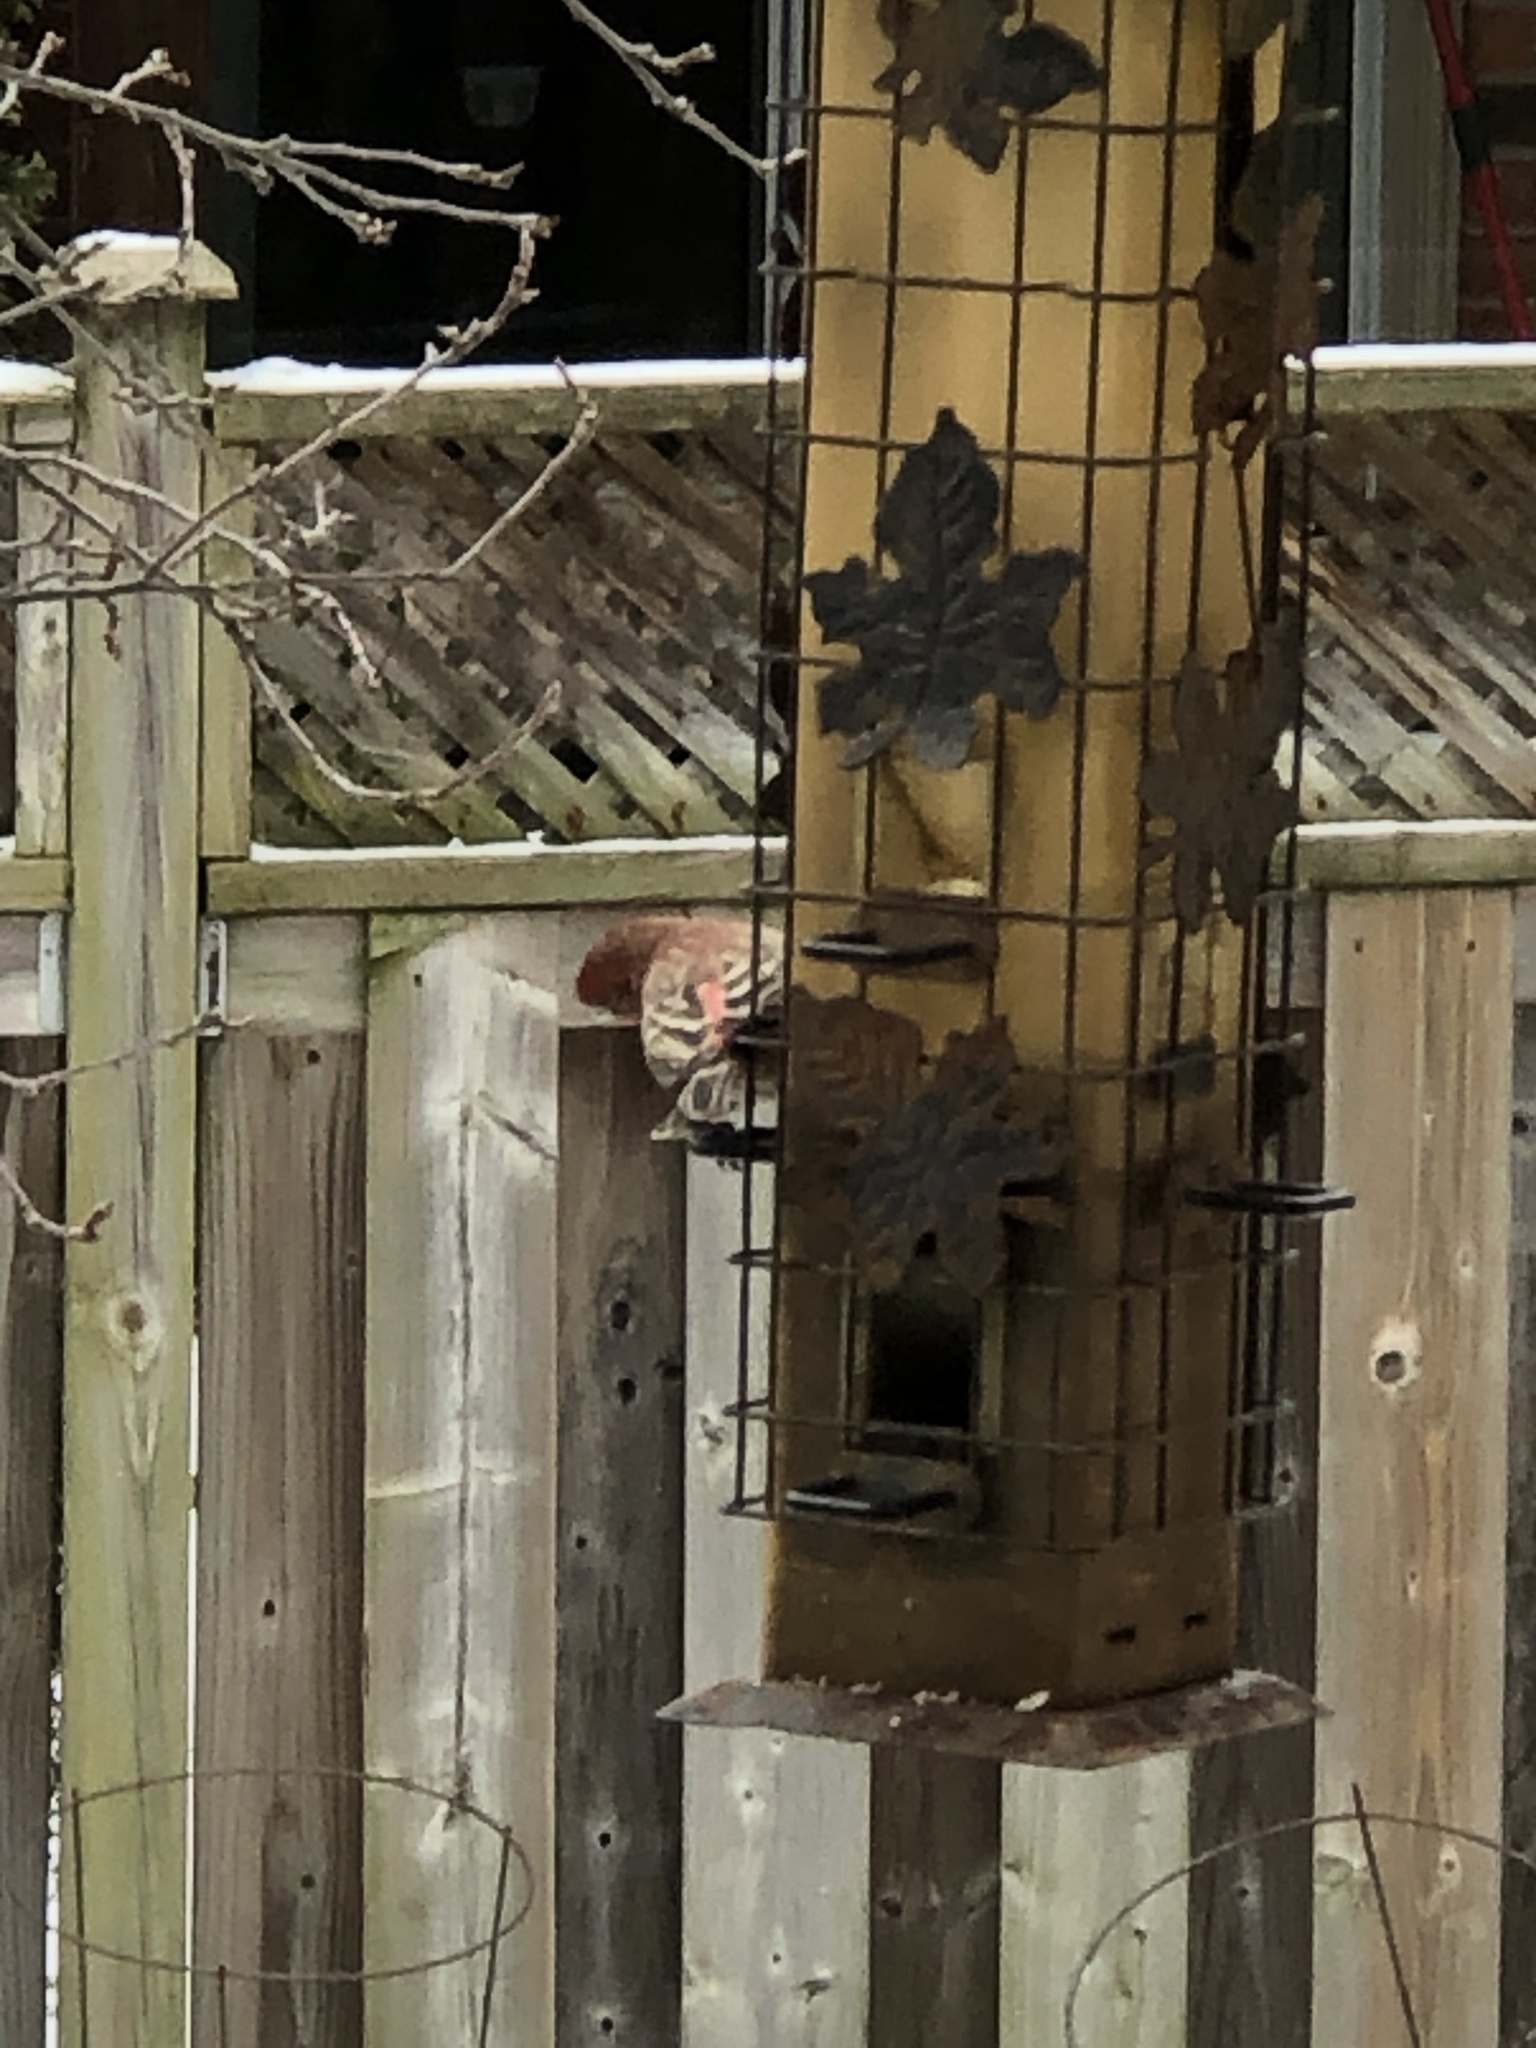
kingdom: Animalia
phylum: Chordata
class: Aves
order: Passeriformes
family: Fringillidae
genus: Haemorhous
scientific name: Haemorhous mexicanus
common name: House finch
